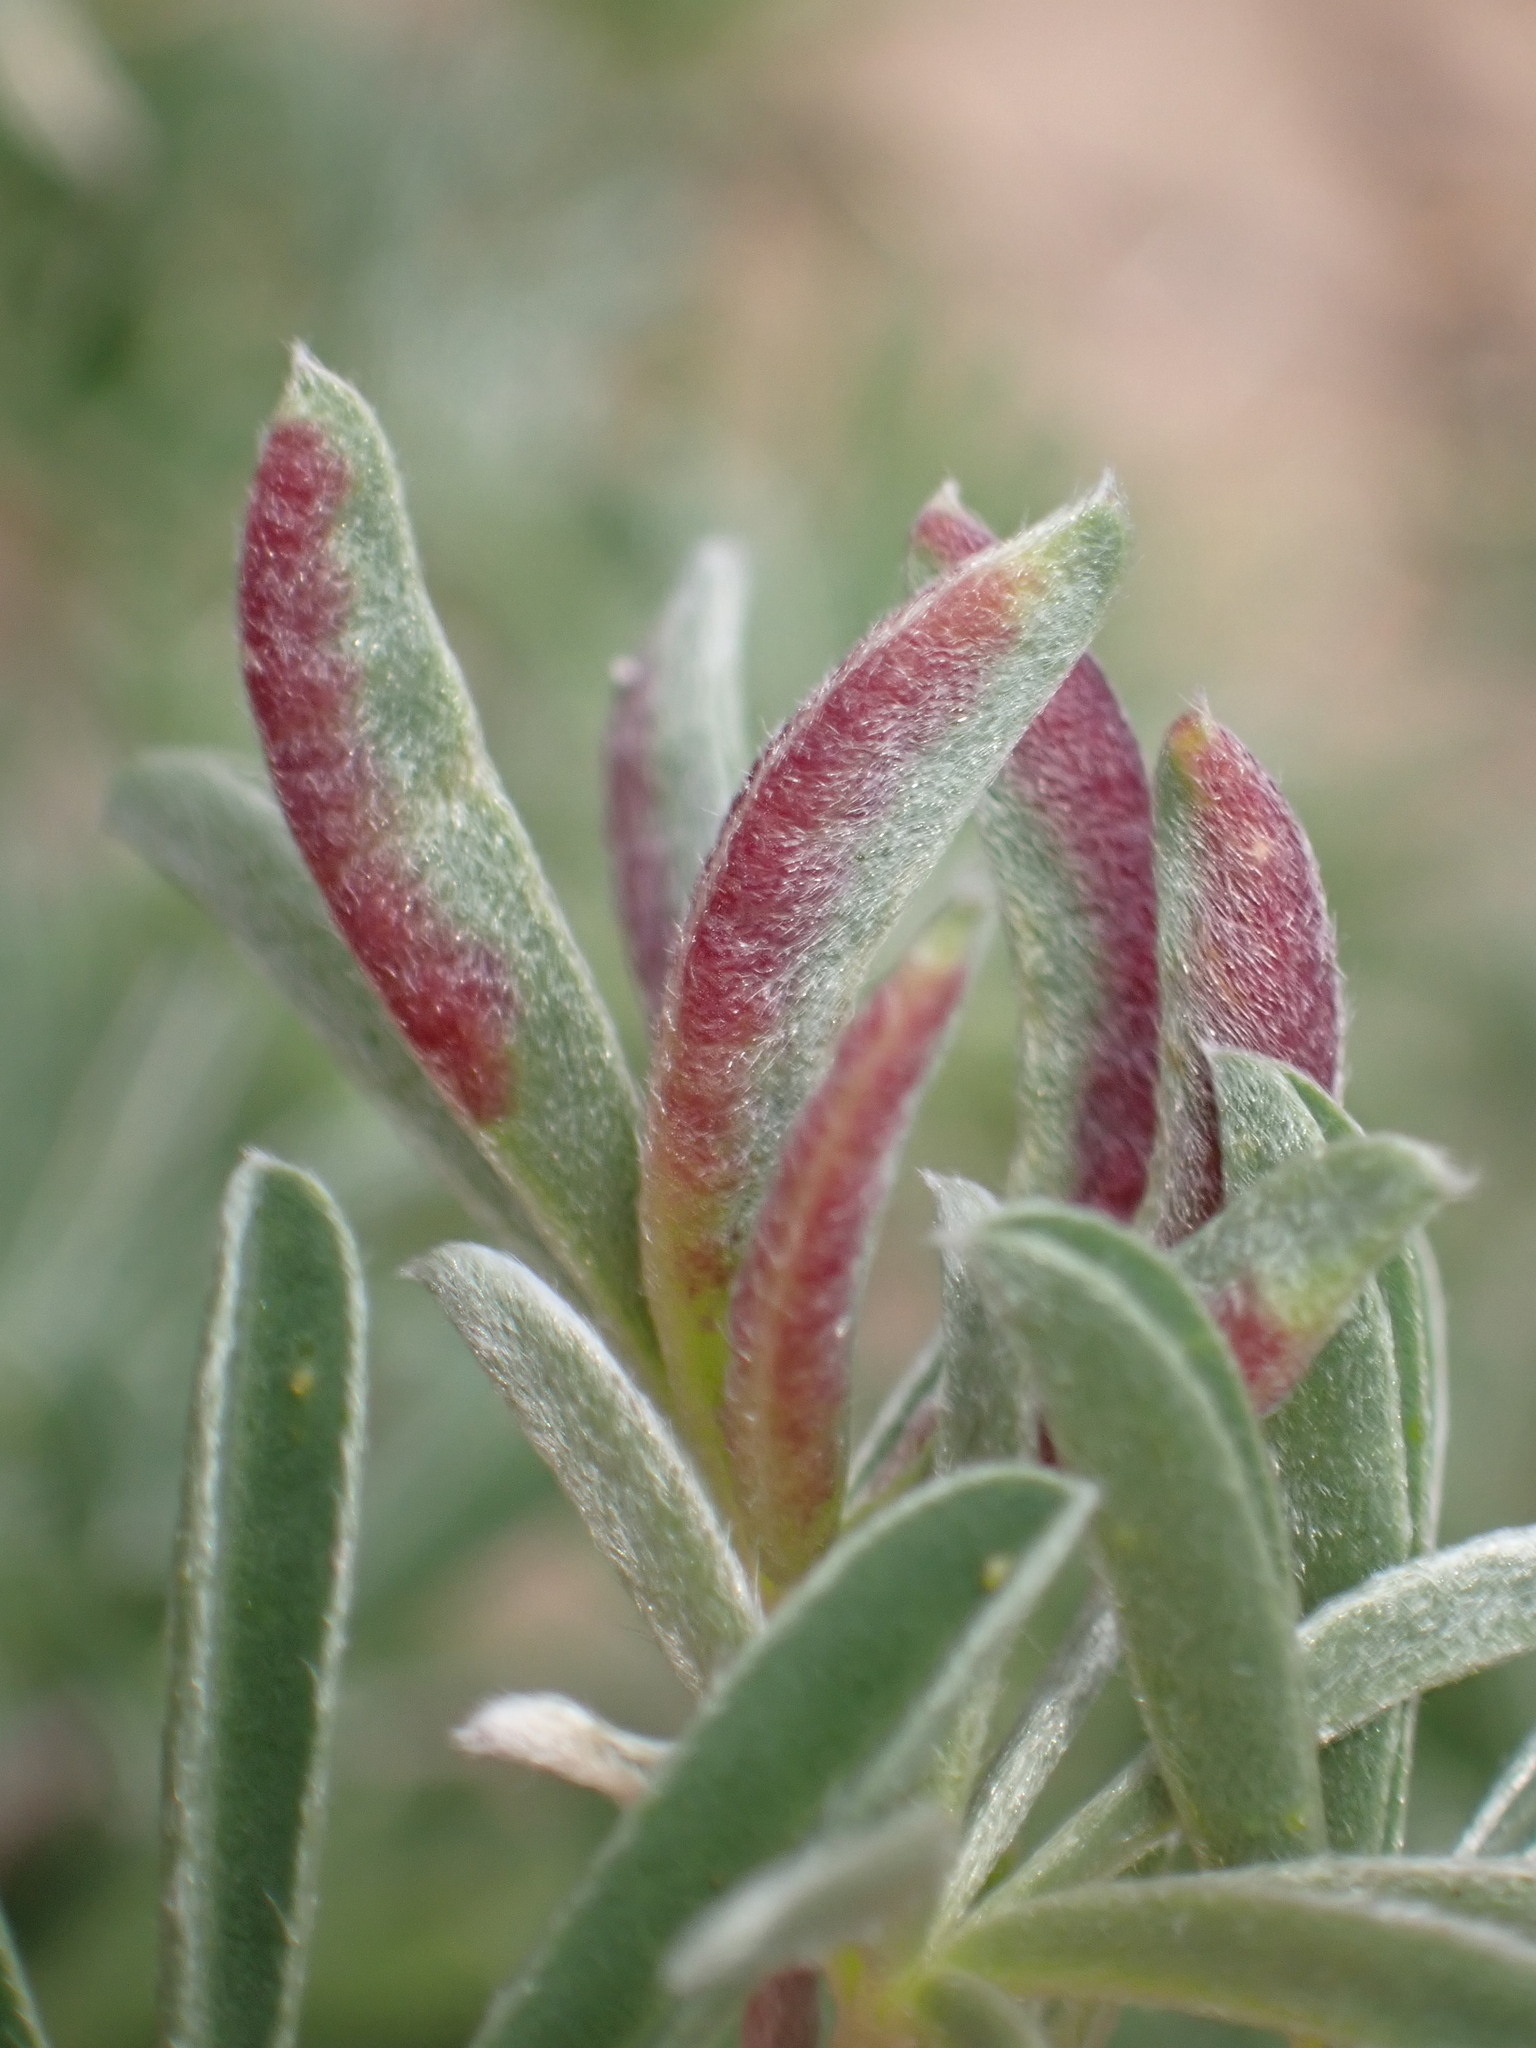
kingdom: Animalia
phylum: Arthropoda
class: Insecta
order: Diptera
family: Cecidomyiidae
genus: Dasineura
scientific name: Dasineura lupinorum
